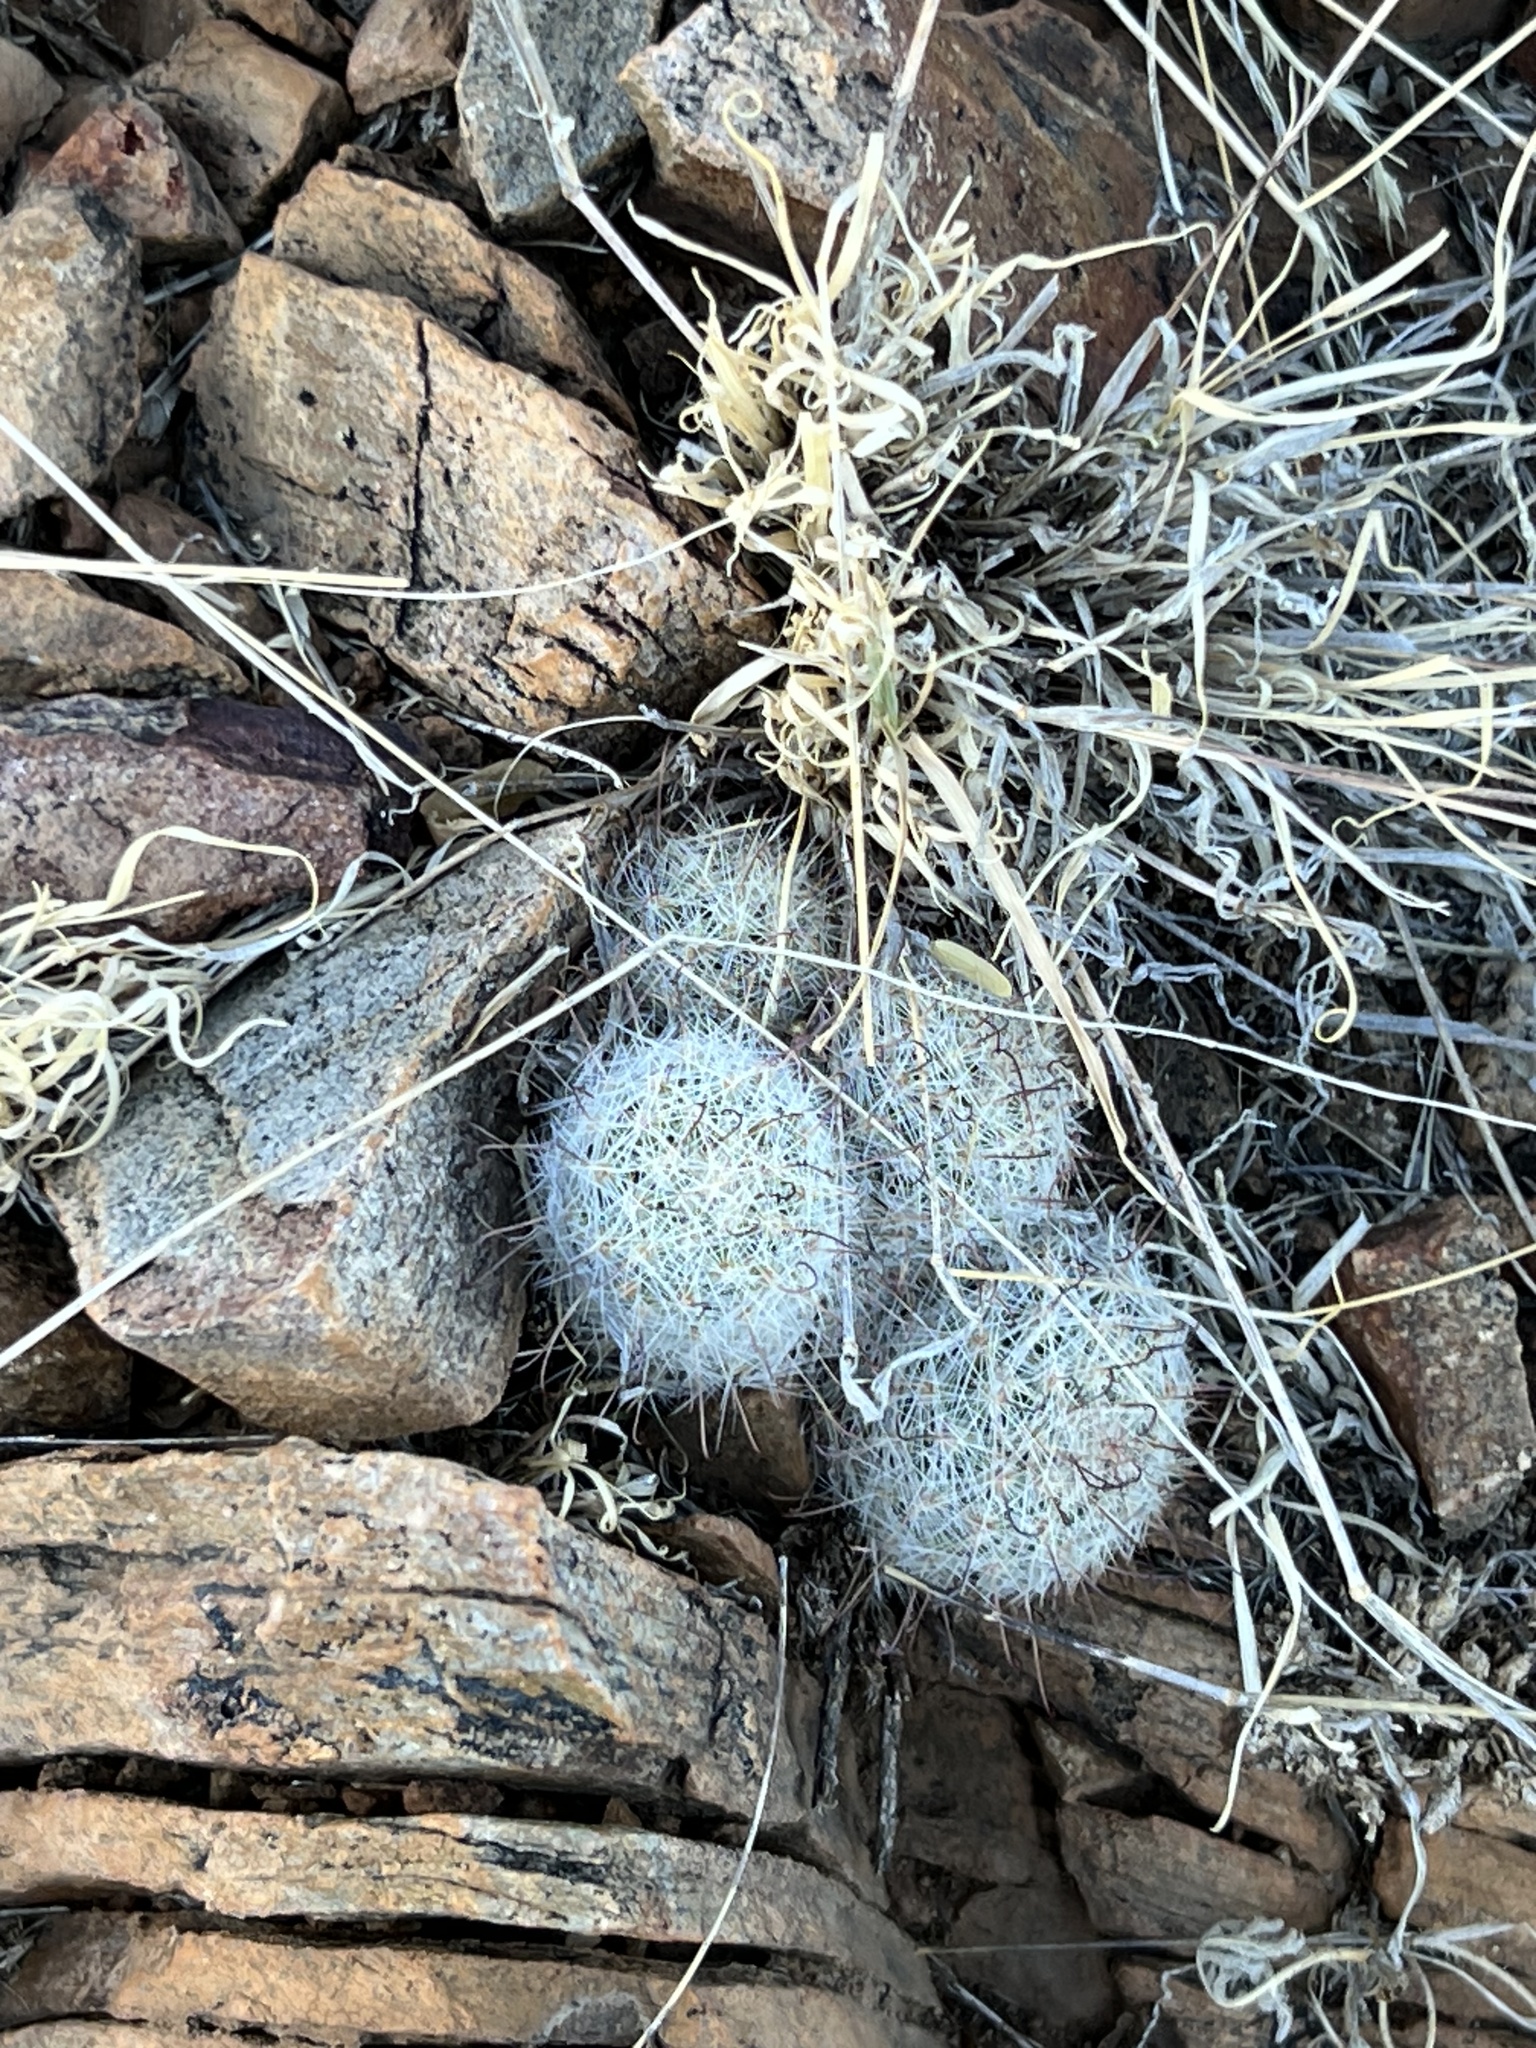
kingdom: Plantae
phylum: Tracheophyta
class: Magnoliopsida
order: Caryophyllales
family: Cactaceae
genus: Cochemiea
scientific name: Cochemiea grahamii
